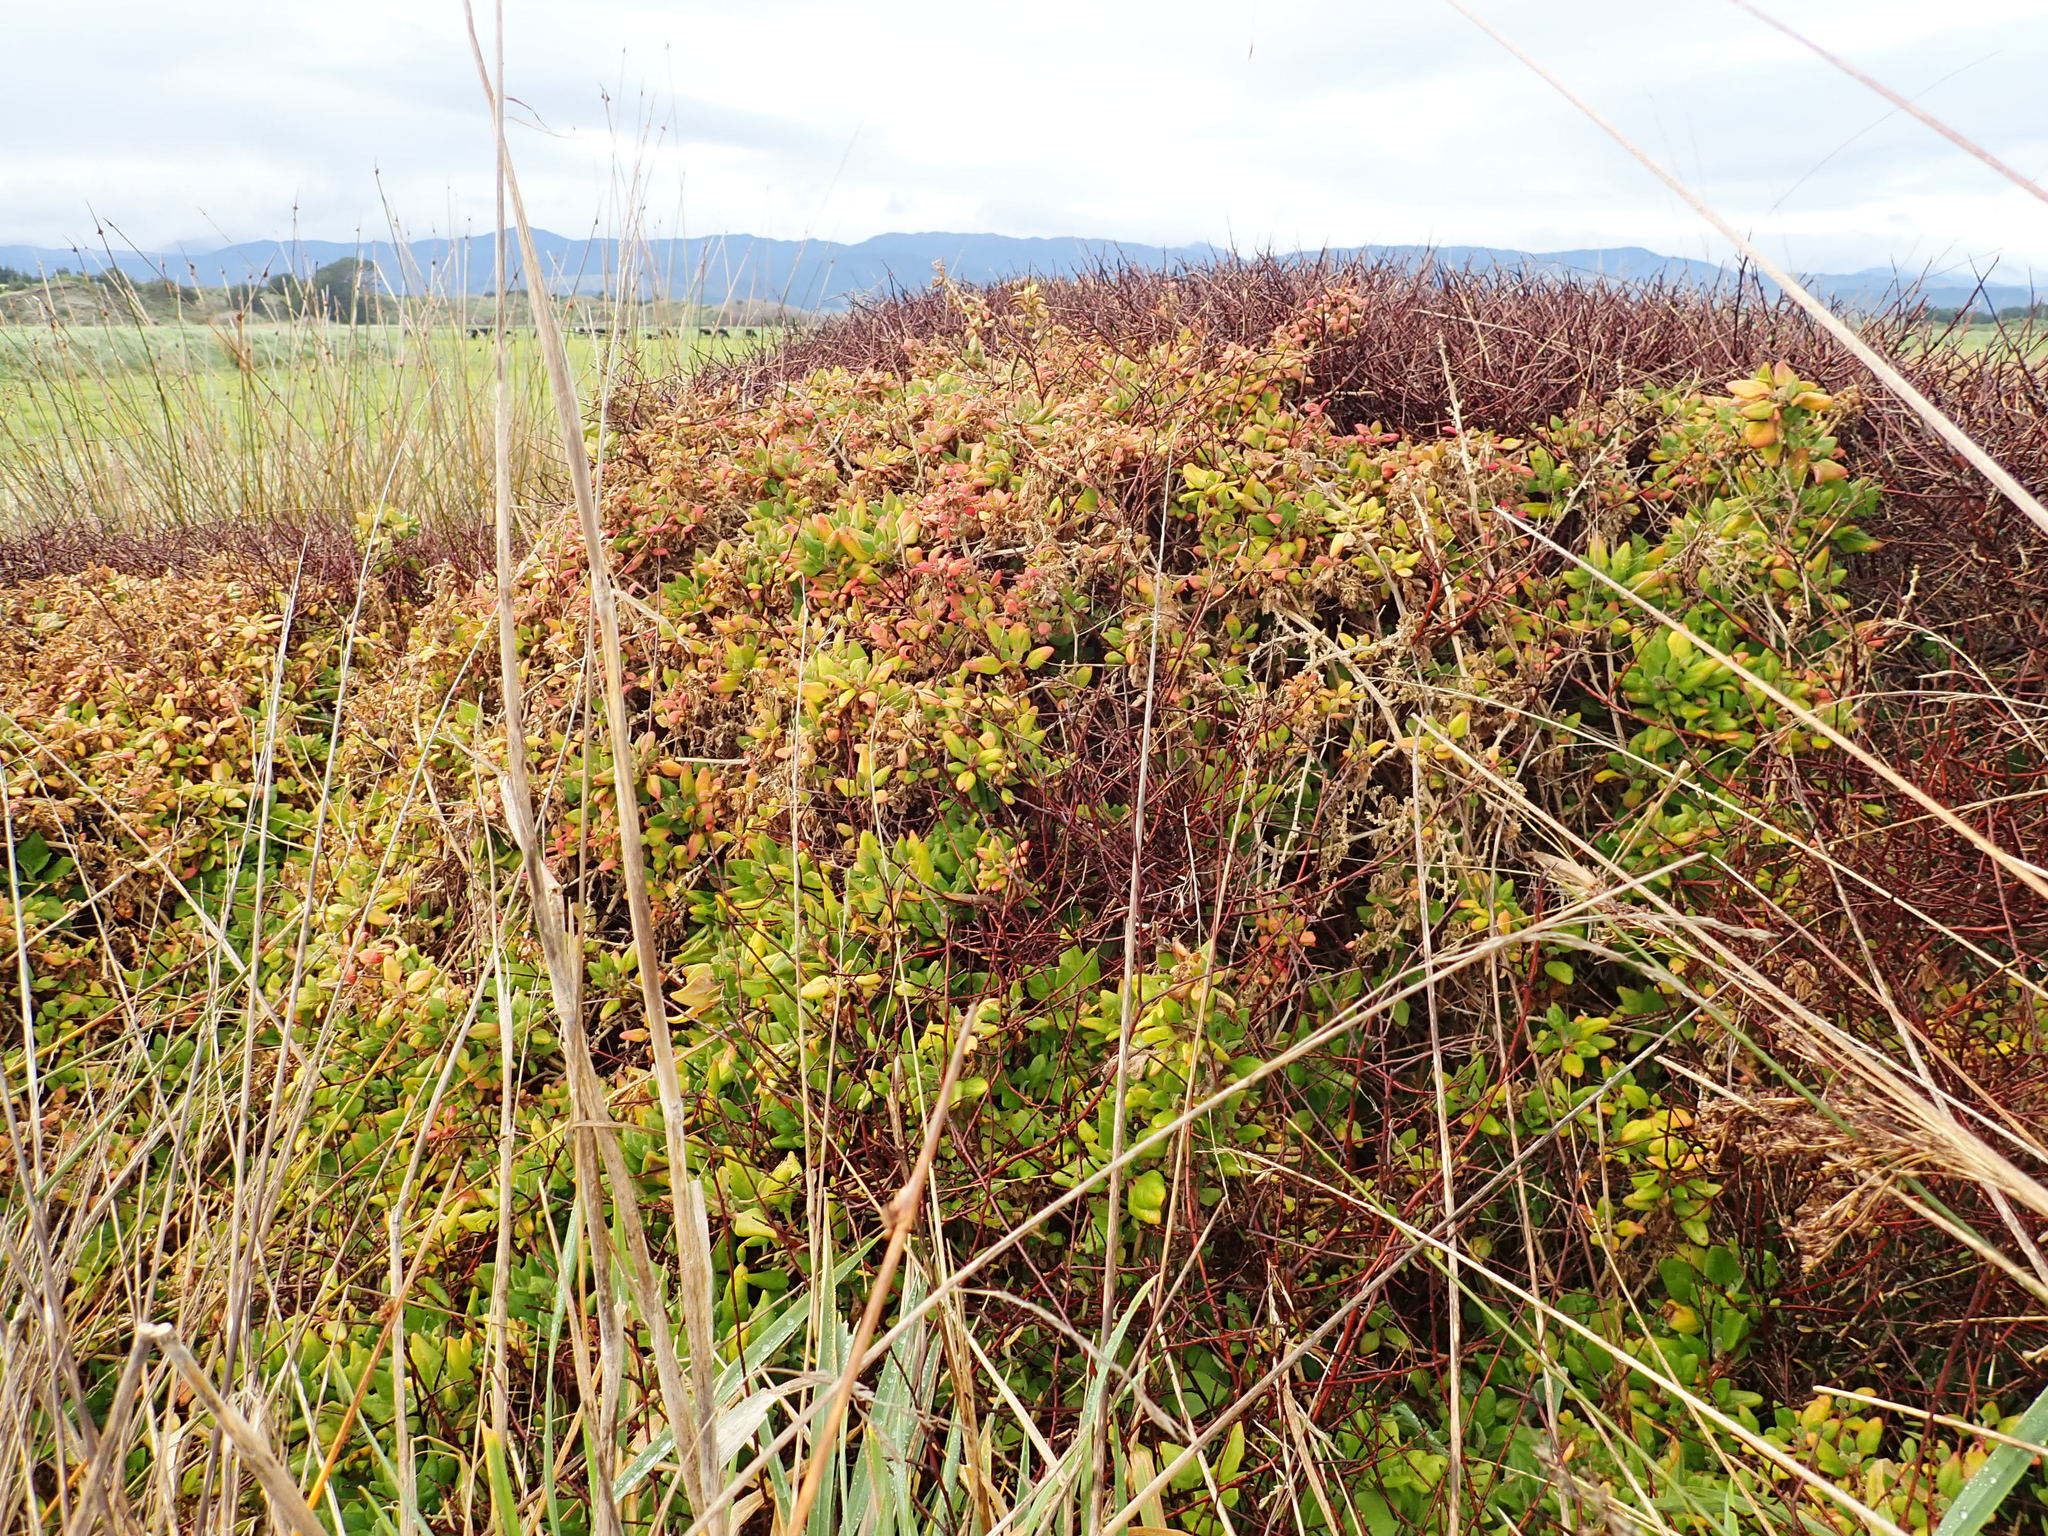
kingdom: Plantae
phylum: Tracheophyta
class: Magnoliopsida
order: Caryophyllales
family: Aizoaceae
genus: Tetragonia
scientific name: Tetragonia implexicoma
